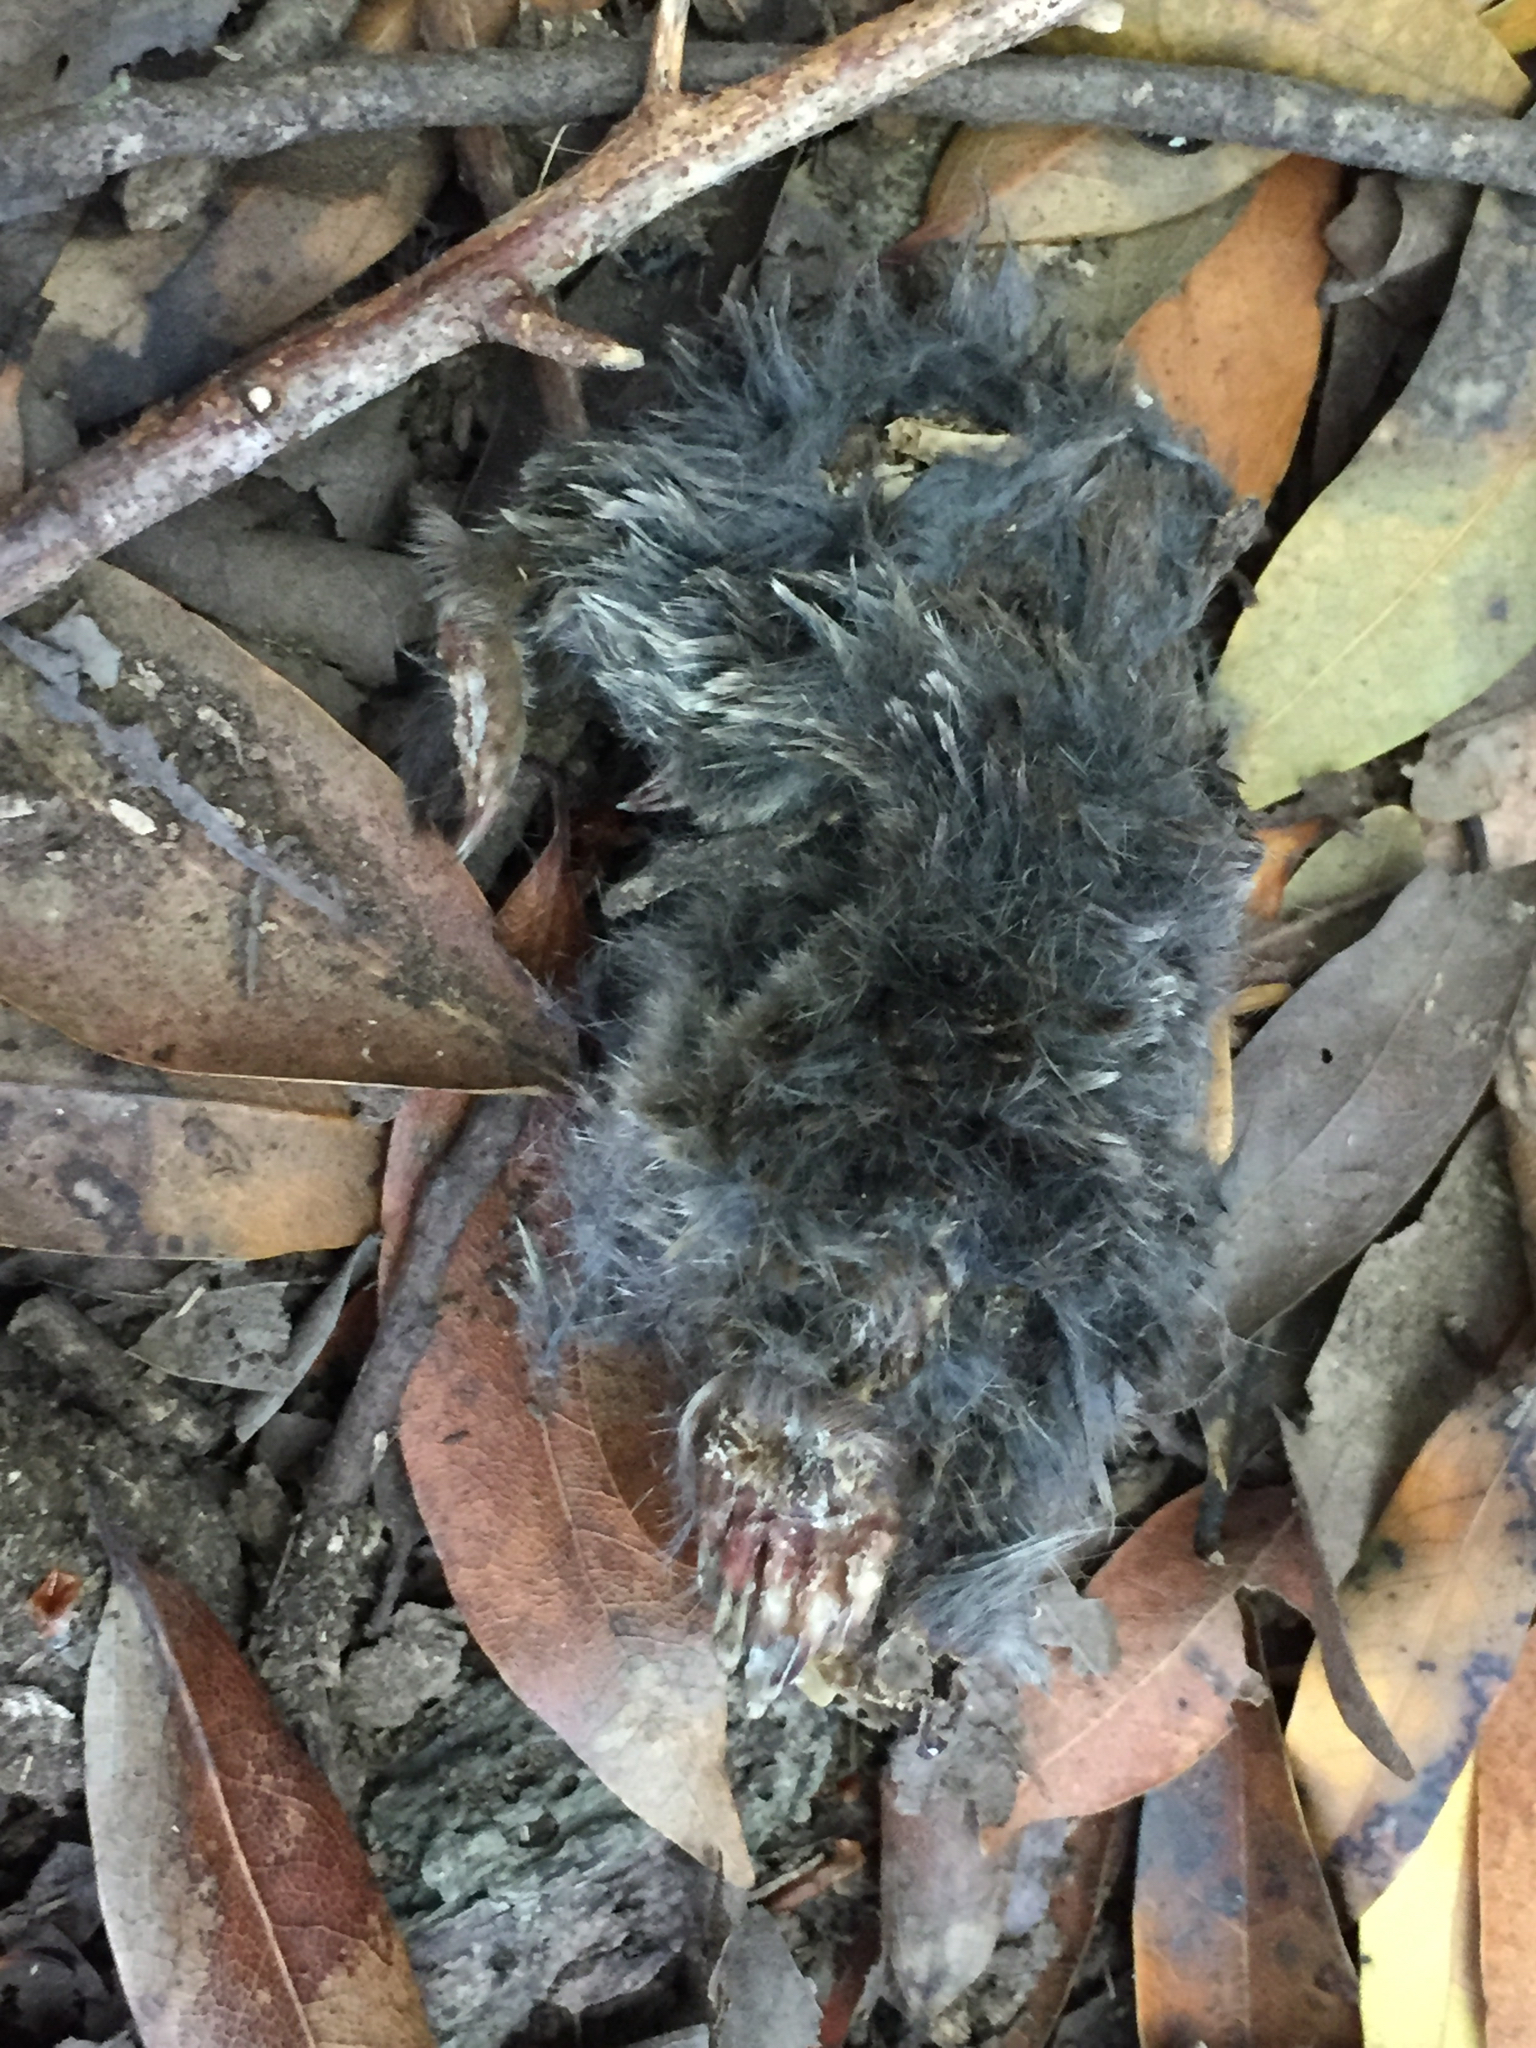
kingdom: Animalia
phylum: Chordata
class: Mammalia
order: Soricomorpha
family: Talpidae
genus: Scapanus
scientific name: Scapanus latimanus
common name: Broad-footed mole
